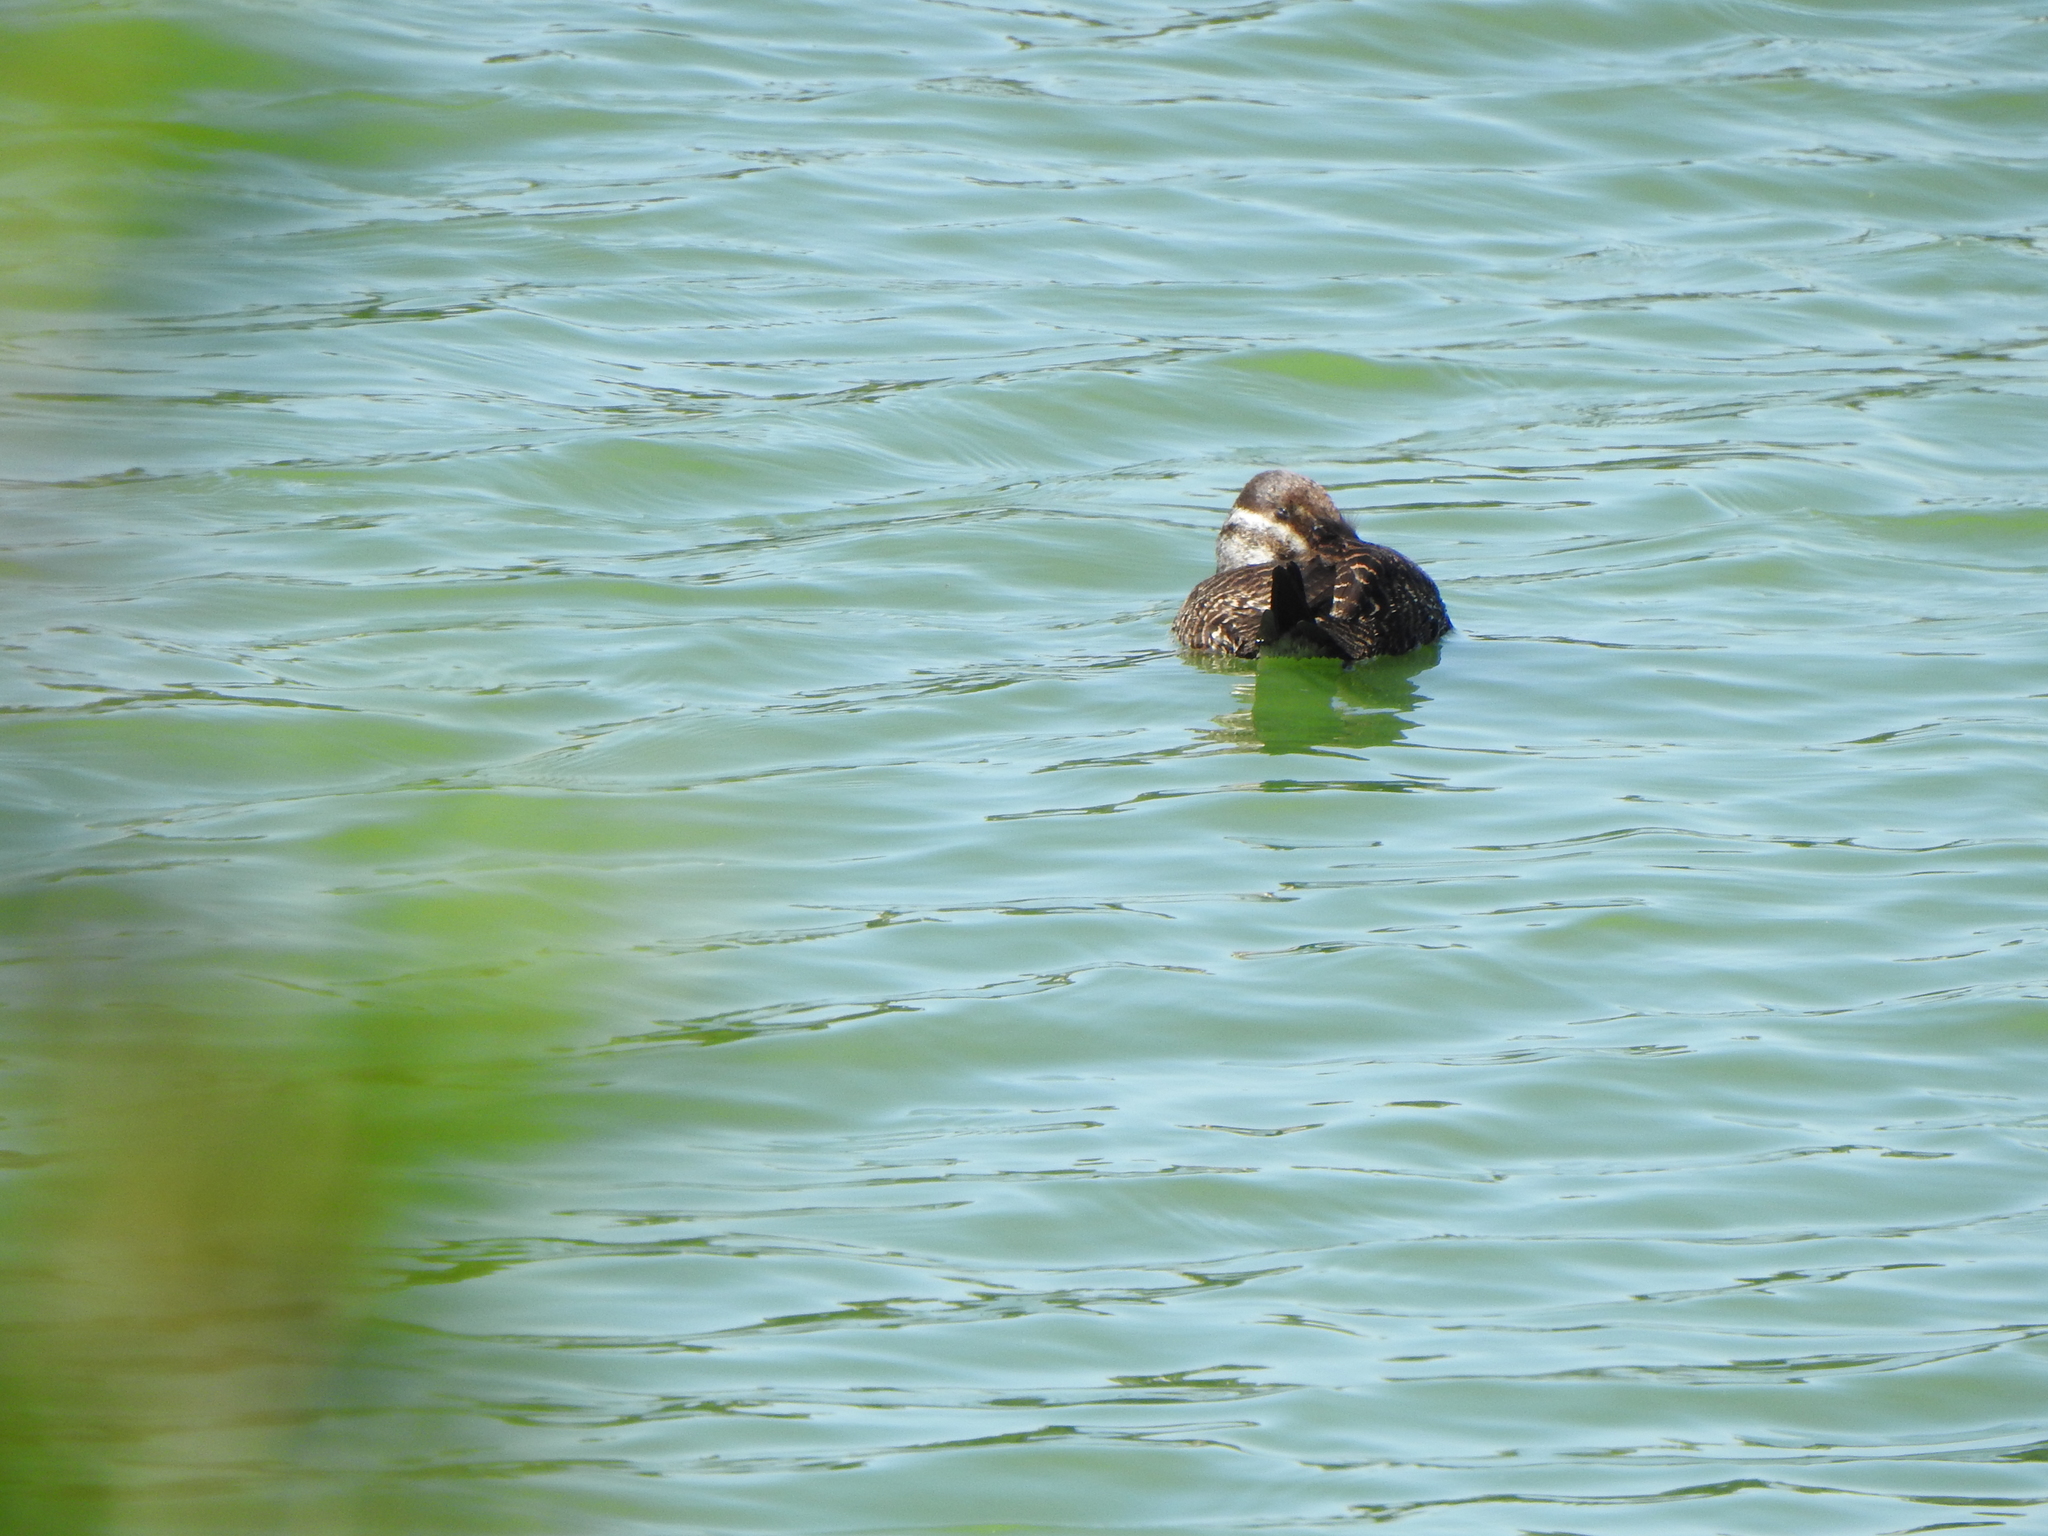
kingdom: Animalia
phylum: Chordata
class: Aves
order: Anseriformes
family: Anatidae
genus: Oxyura
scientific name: Oxyura vittata
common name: Lake duck
